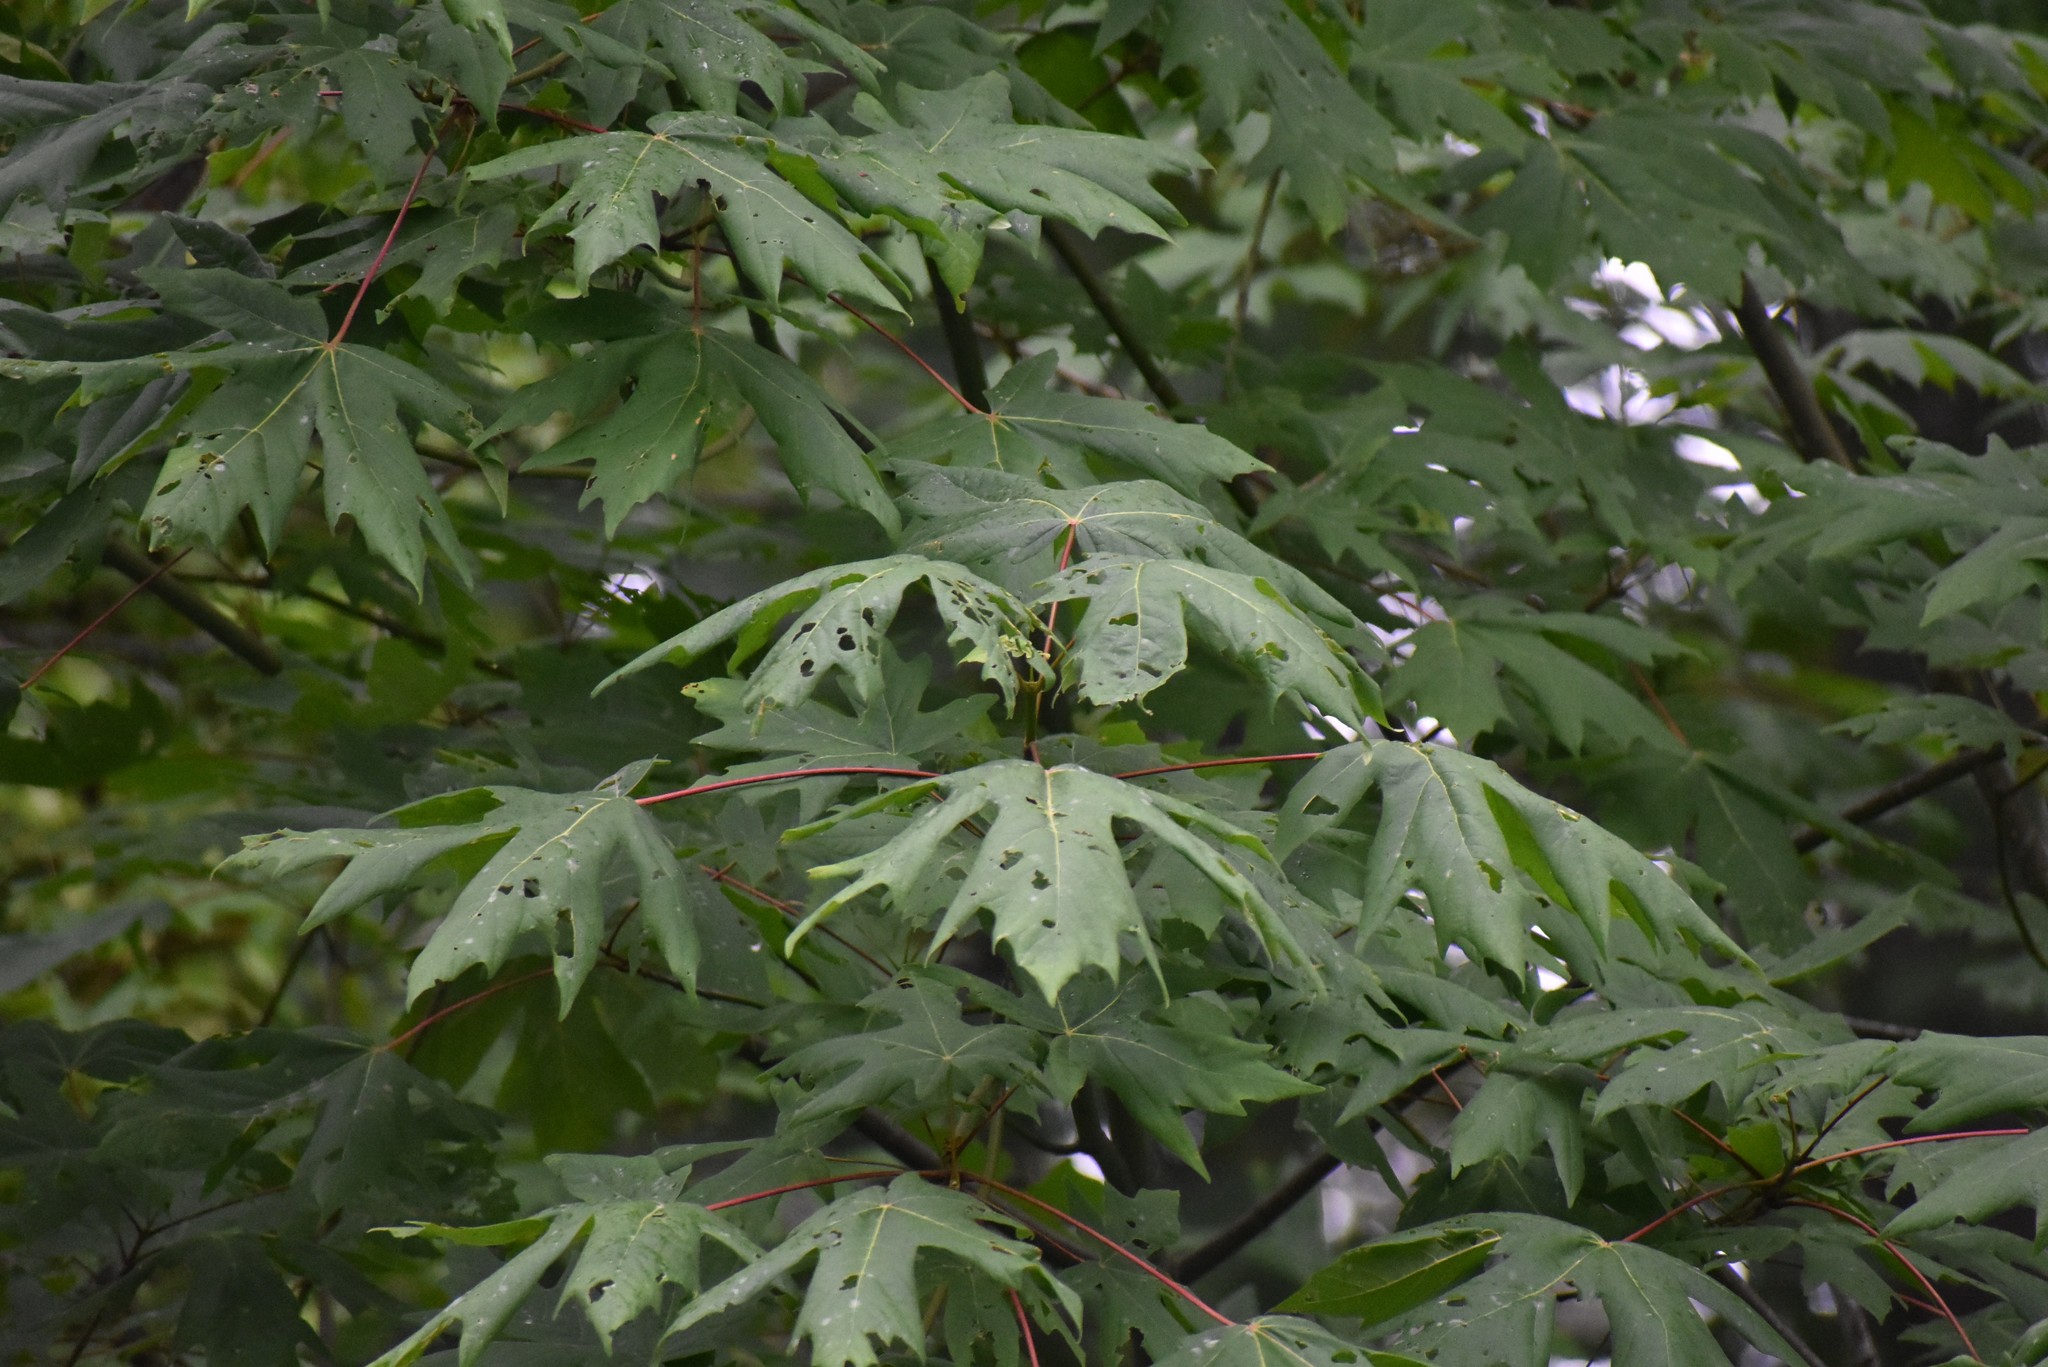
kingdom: Plantae
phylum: Tracheophyta
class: Magnoliopsida
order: Sapindales
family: Sapindaceae
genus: Acer
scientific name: Acer macrophyllum
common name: Oregon maple
